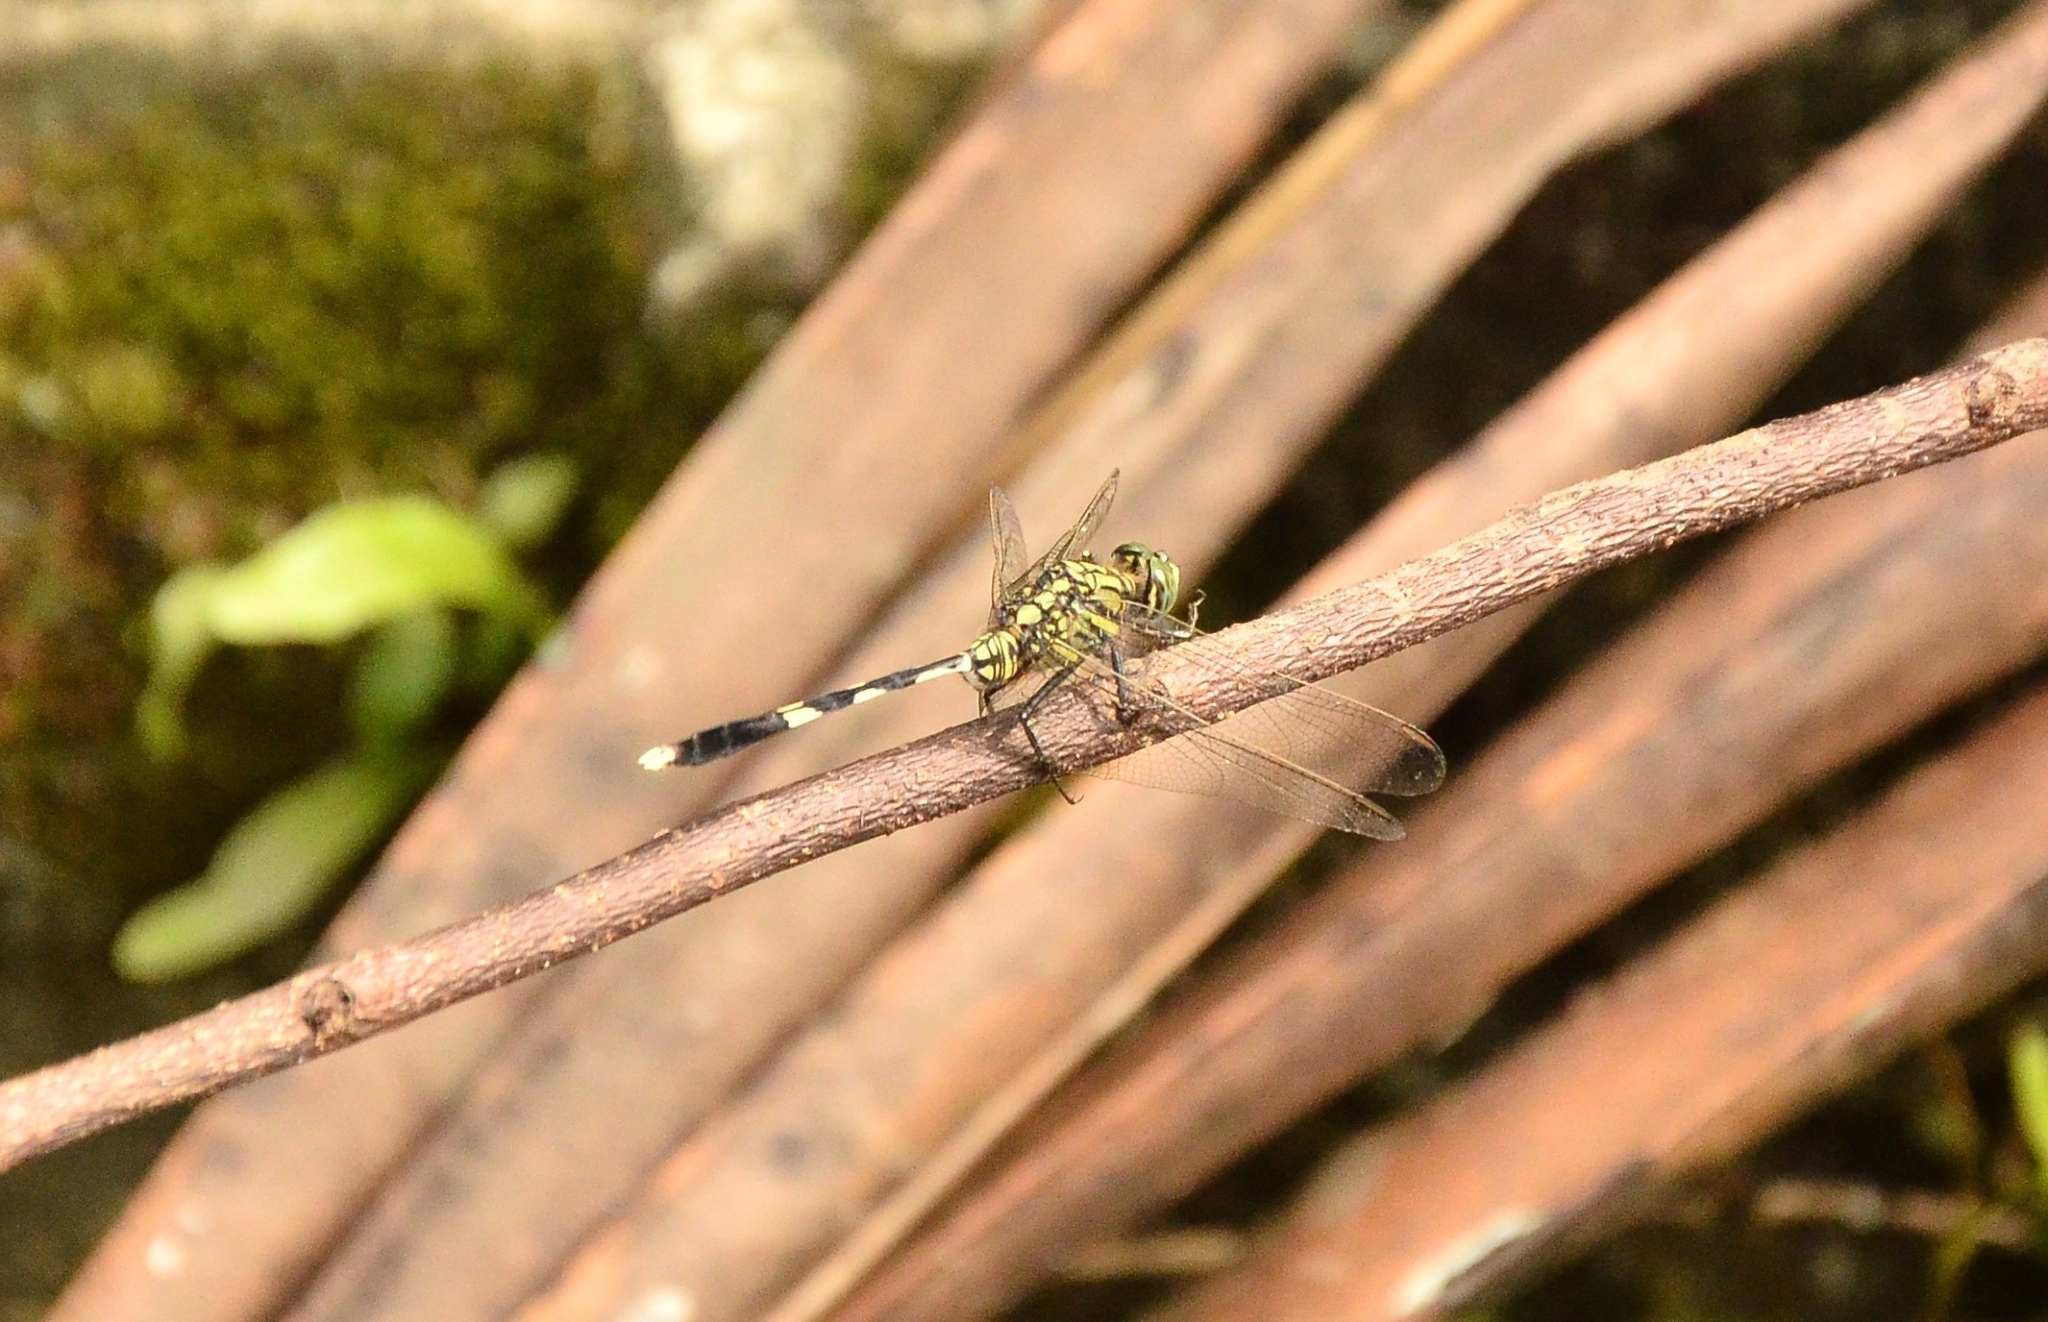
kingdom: Animalia
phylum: Arthropoda
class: Insecta
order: Odonata
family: Libellulidae
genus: Orthetrum
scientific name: Orthetrum sabina
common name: Slender skimmer
